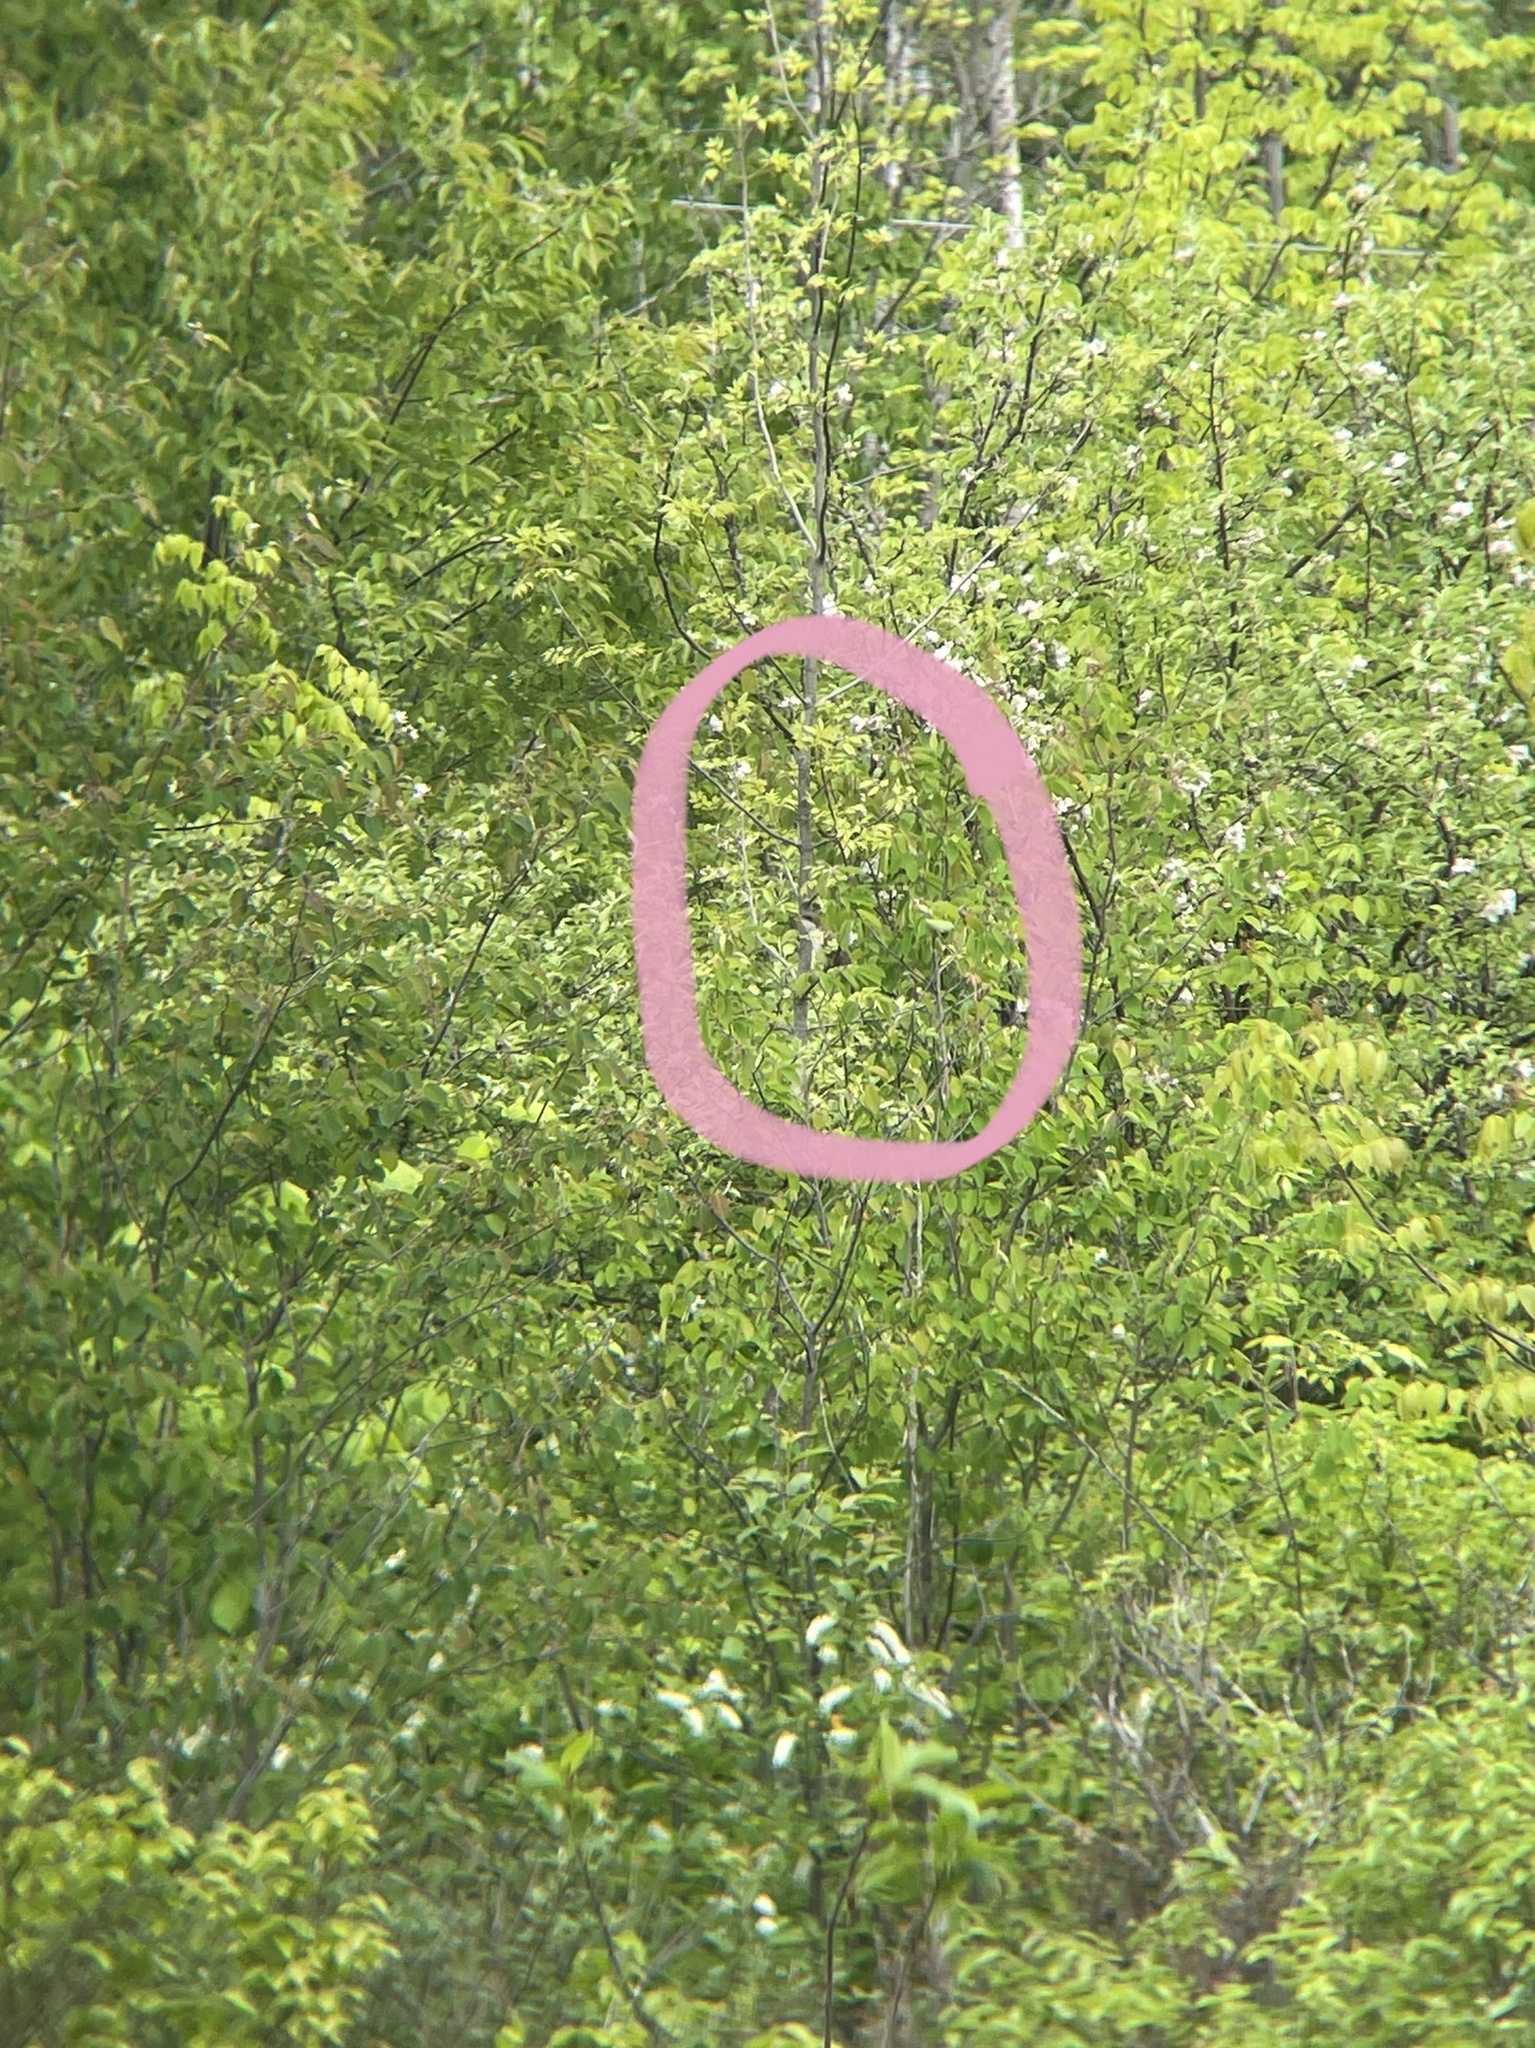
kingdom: Animalia
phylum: Chordata
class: Aves
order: Cuculiformes
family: Cuculidae
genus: Coccyzus
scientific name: Coccyzus americanus
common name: Yellow-billed cuckoo
